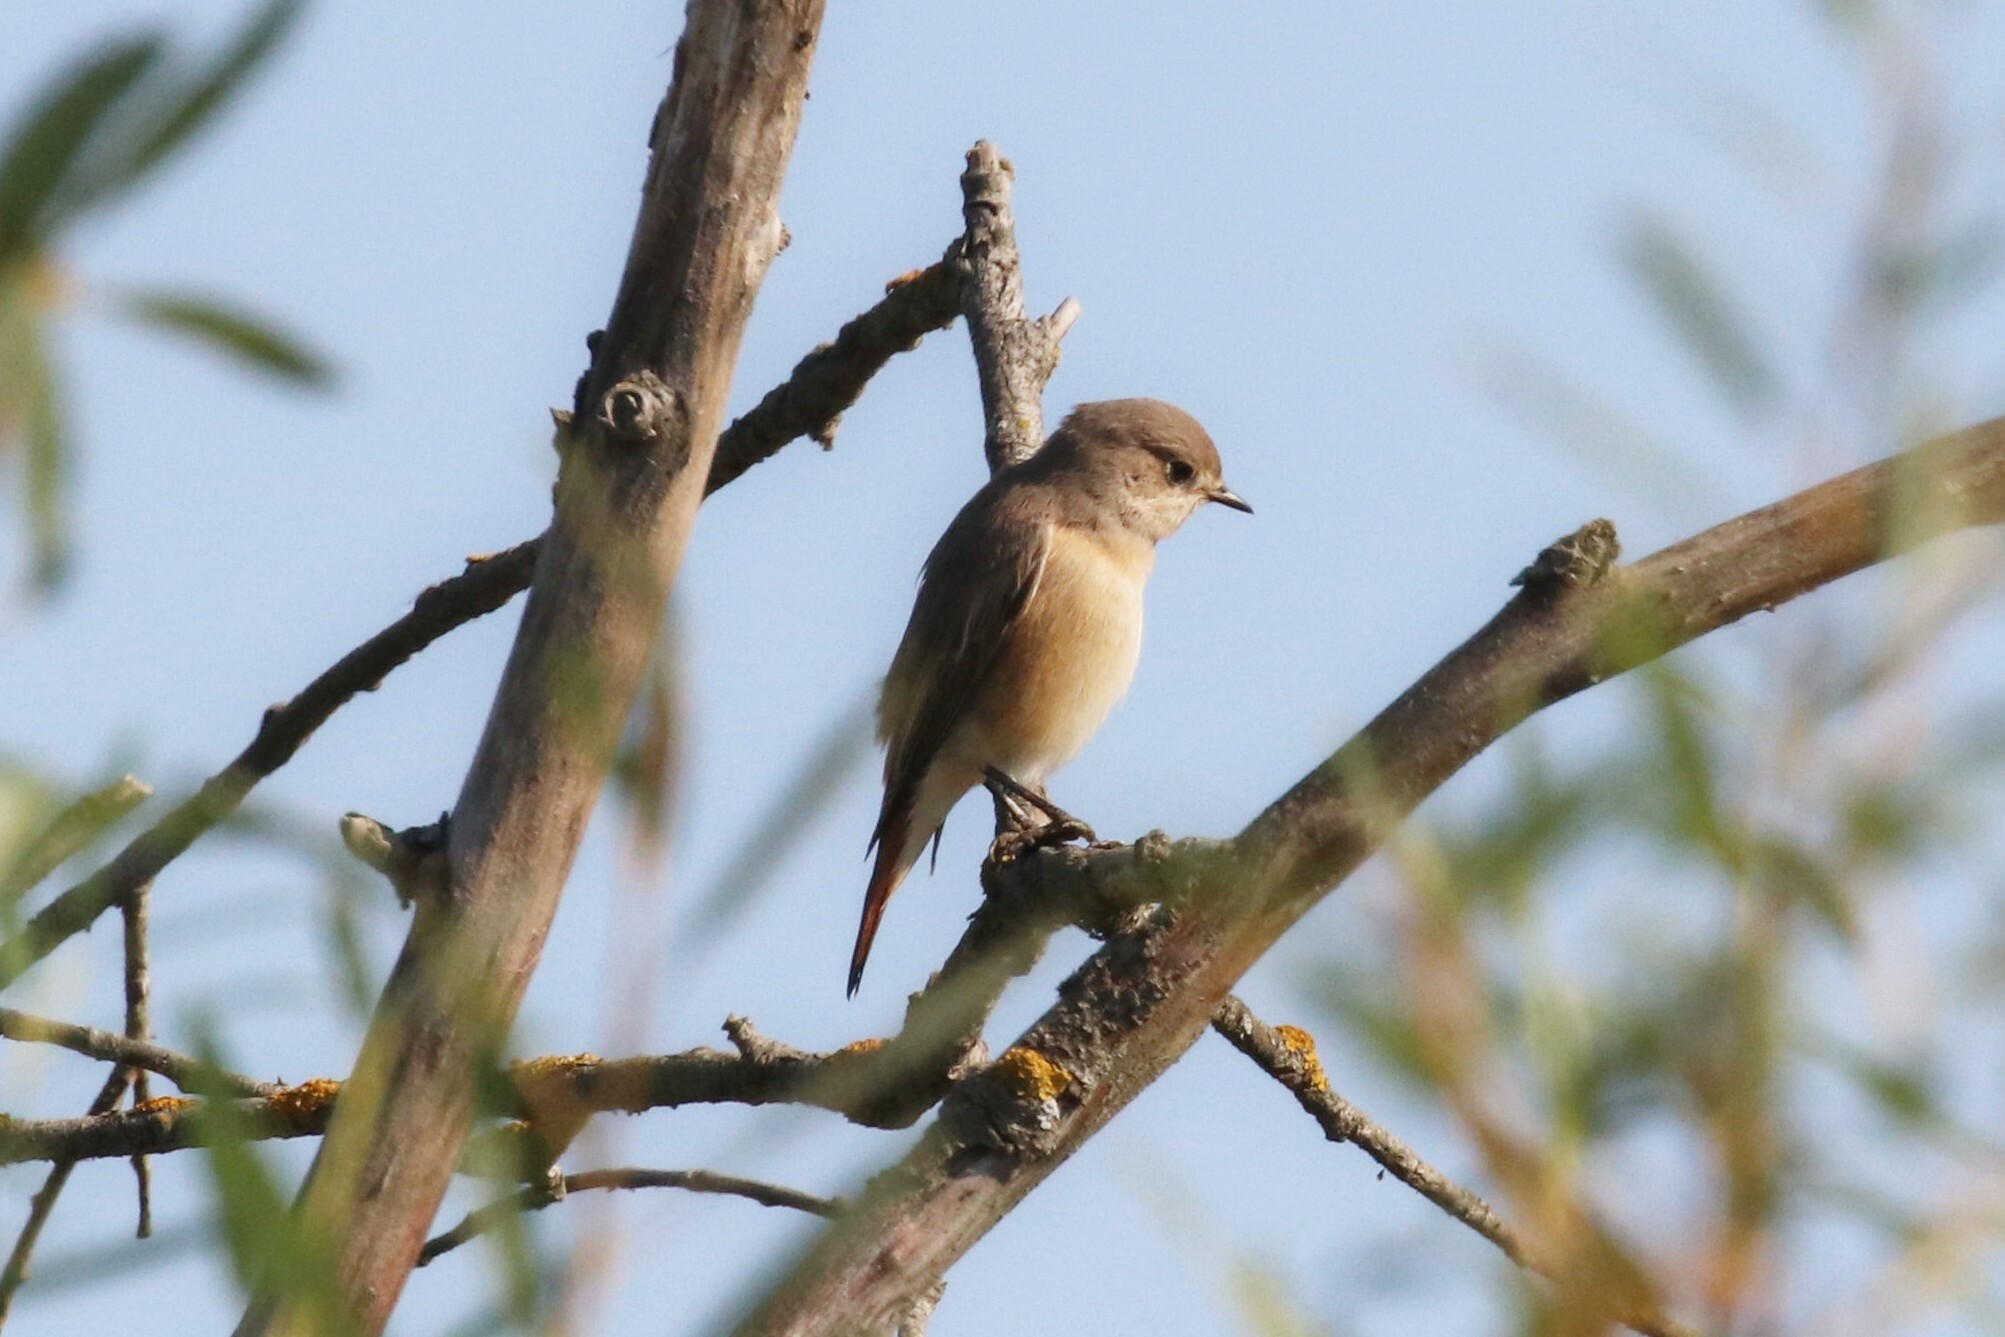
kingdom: Animalia
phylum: Chordata
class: Aves
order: Passeriformes
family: Muscicapidae
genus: Phoenicurus
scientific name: Phoenicurus phoenicurus
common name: Common redstart
